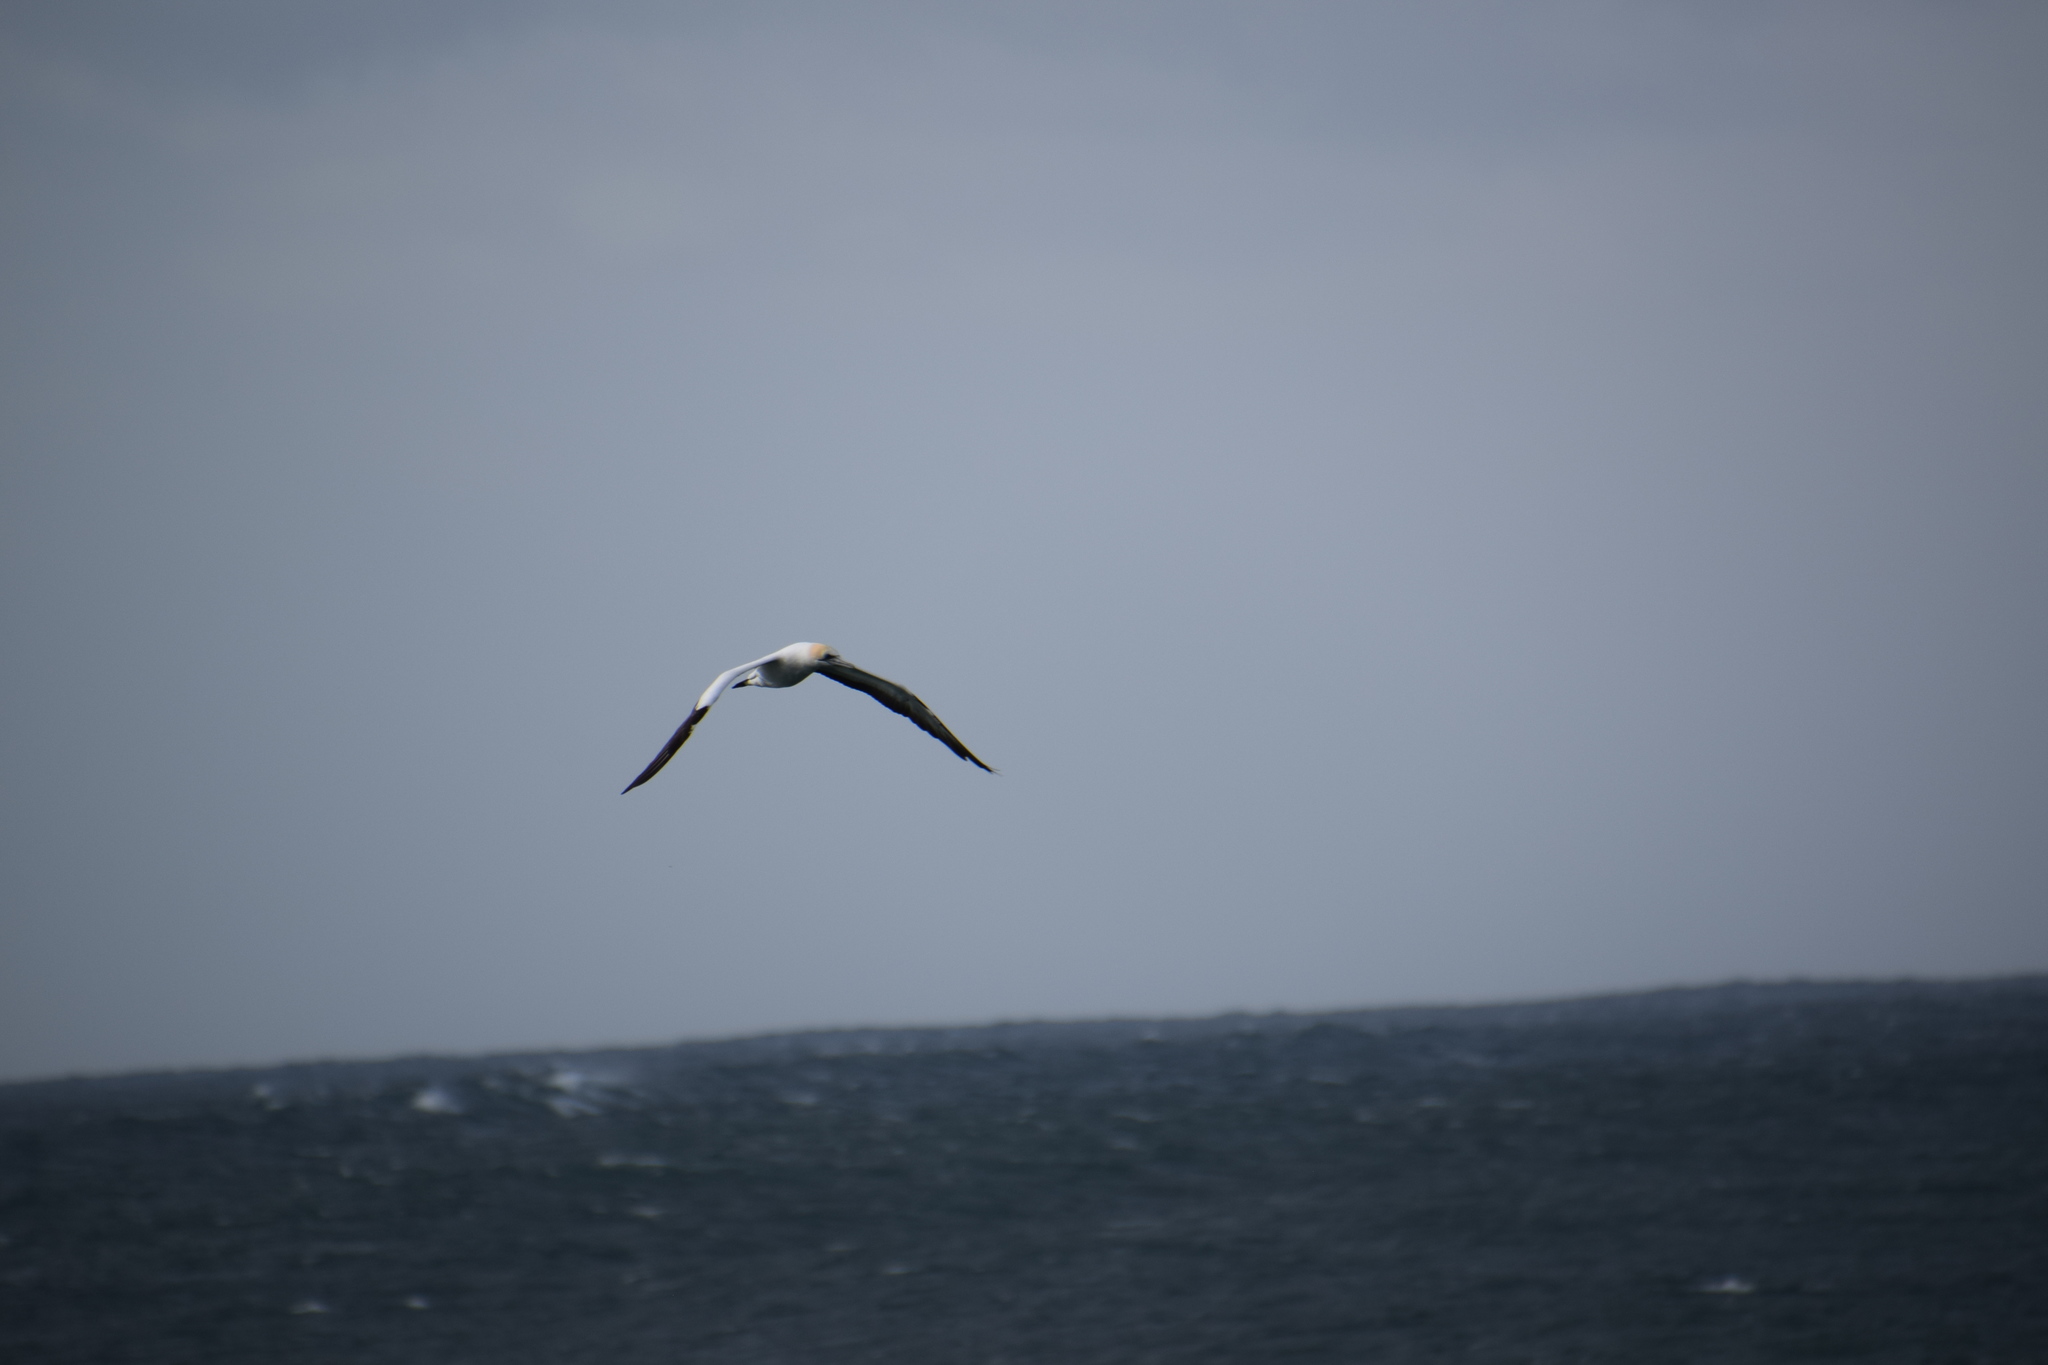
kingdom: Animalia
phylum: Chordata
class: Aves
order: Suliformes
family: Sulidae
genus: Morus
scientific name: Morus serrator
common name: Australasian gannet
